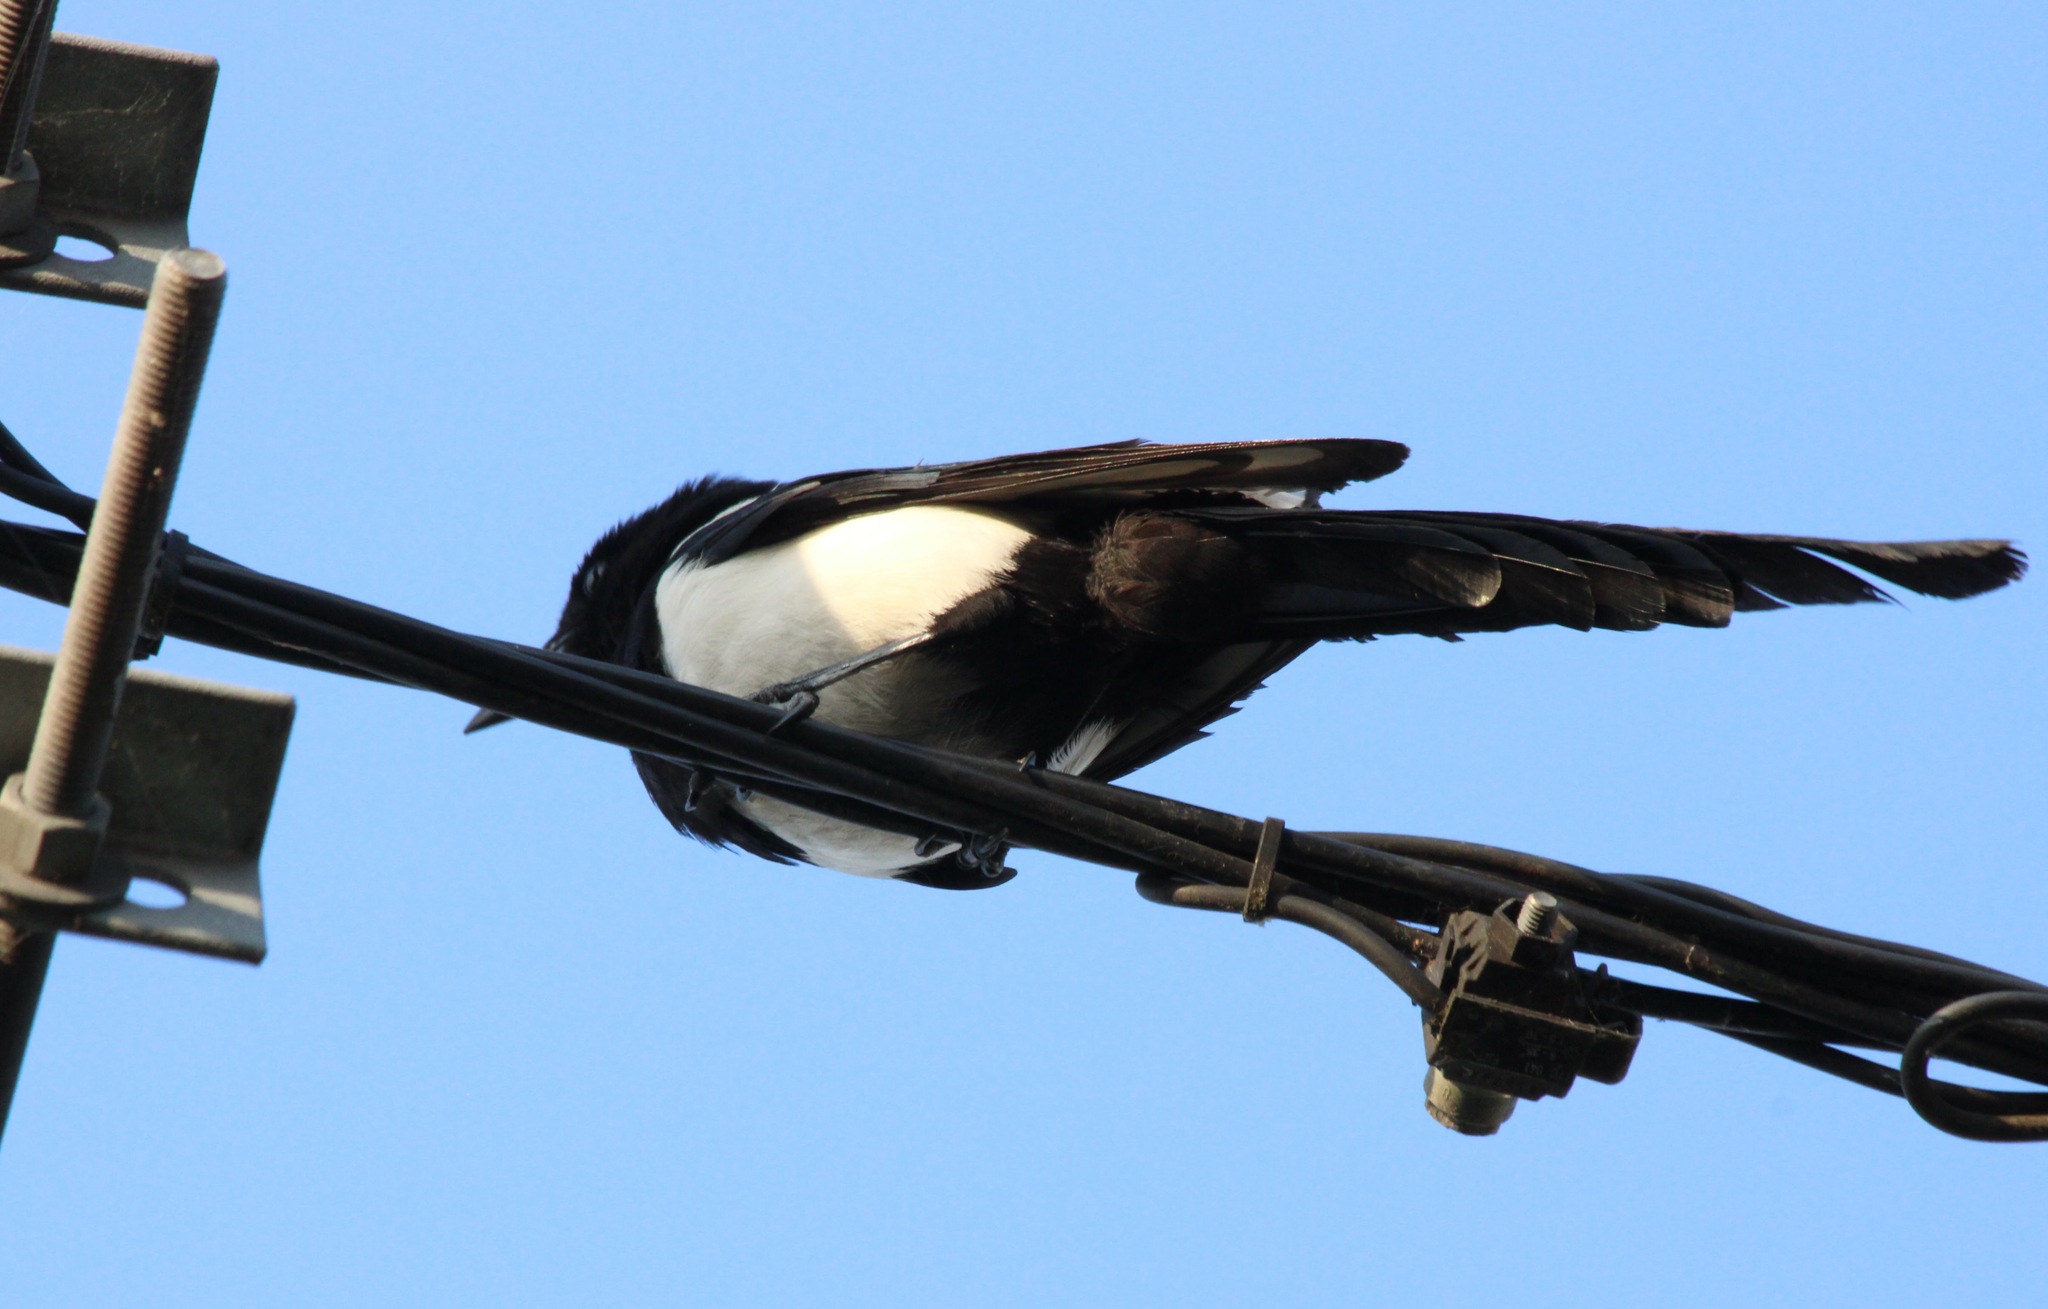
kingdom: Animalia
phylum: Chordata
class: Aves
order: Passeriformes
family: Corvidae
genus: Pica
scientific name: Pica pica
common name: Eurasian magpie
